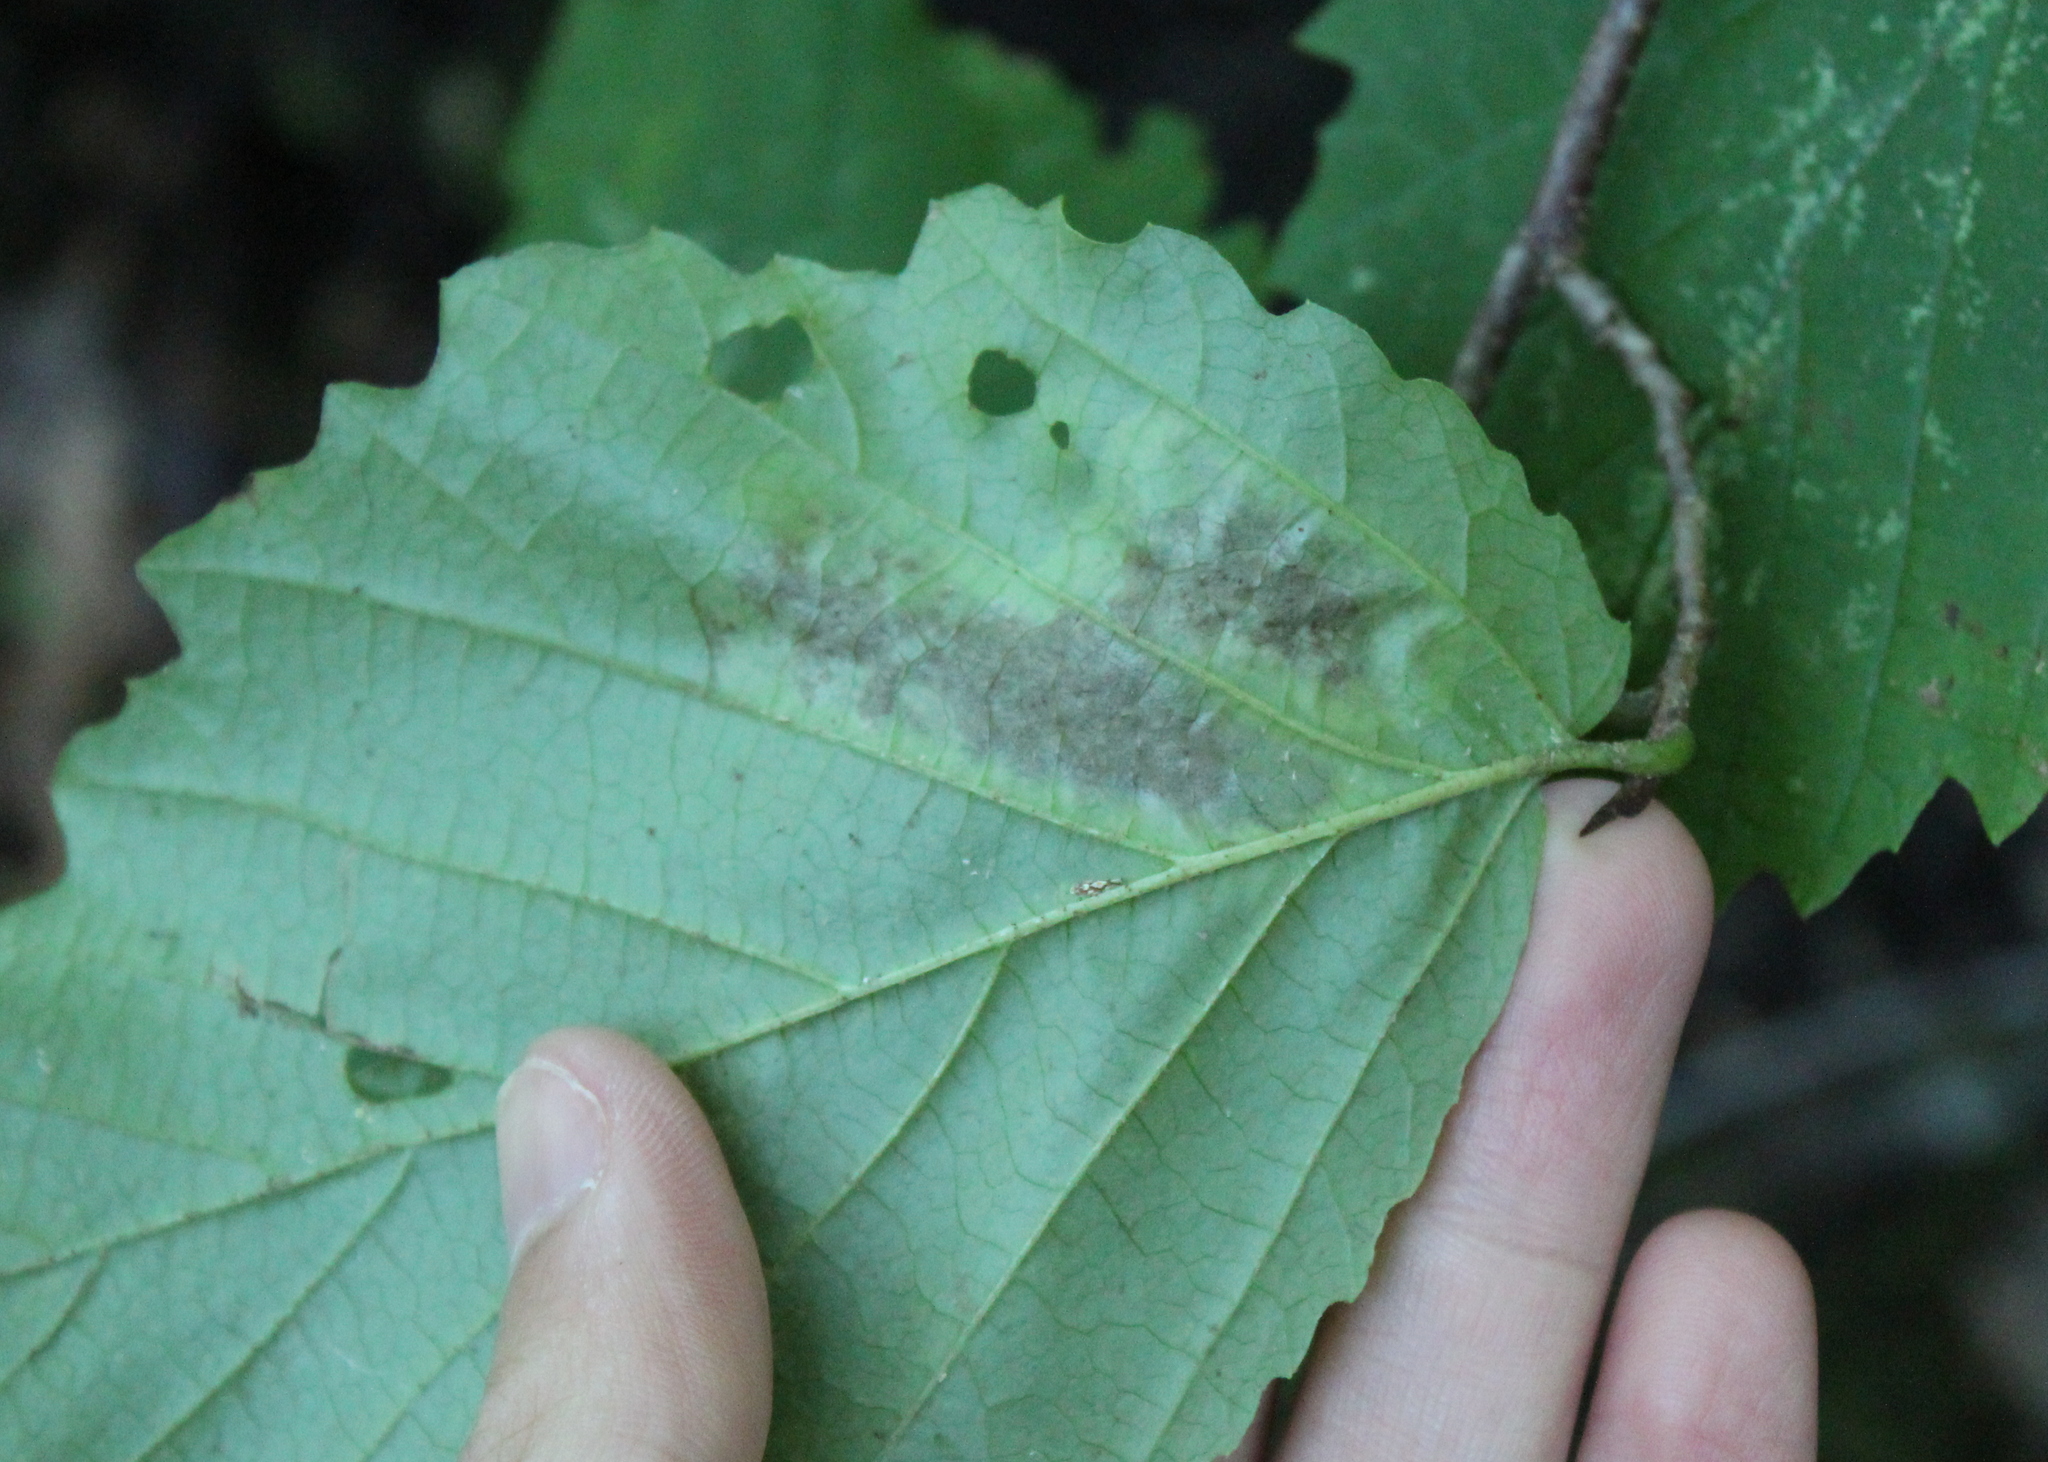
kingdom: Animalia
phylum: Arthropoda
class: Insecta
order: Lepidoptera
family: Gracillariidae
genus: Cameraria
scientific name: Cameraria hamameliella
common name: Witchhazel leafminer
